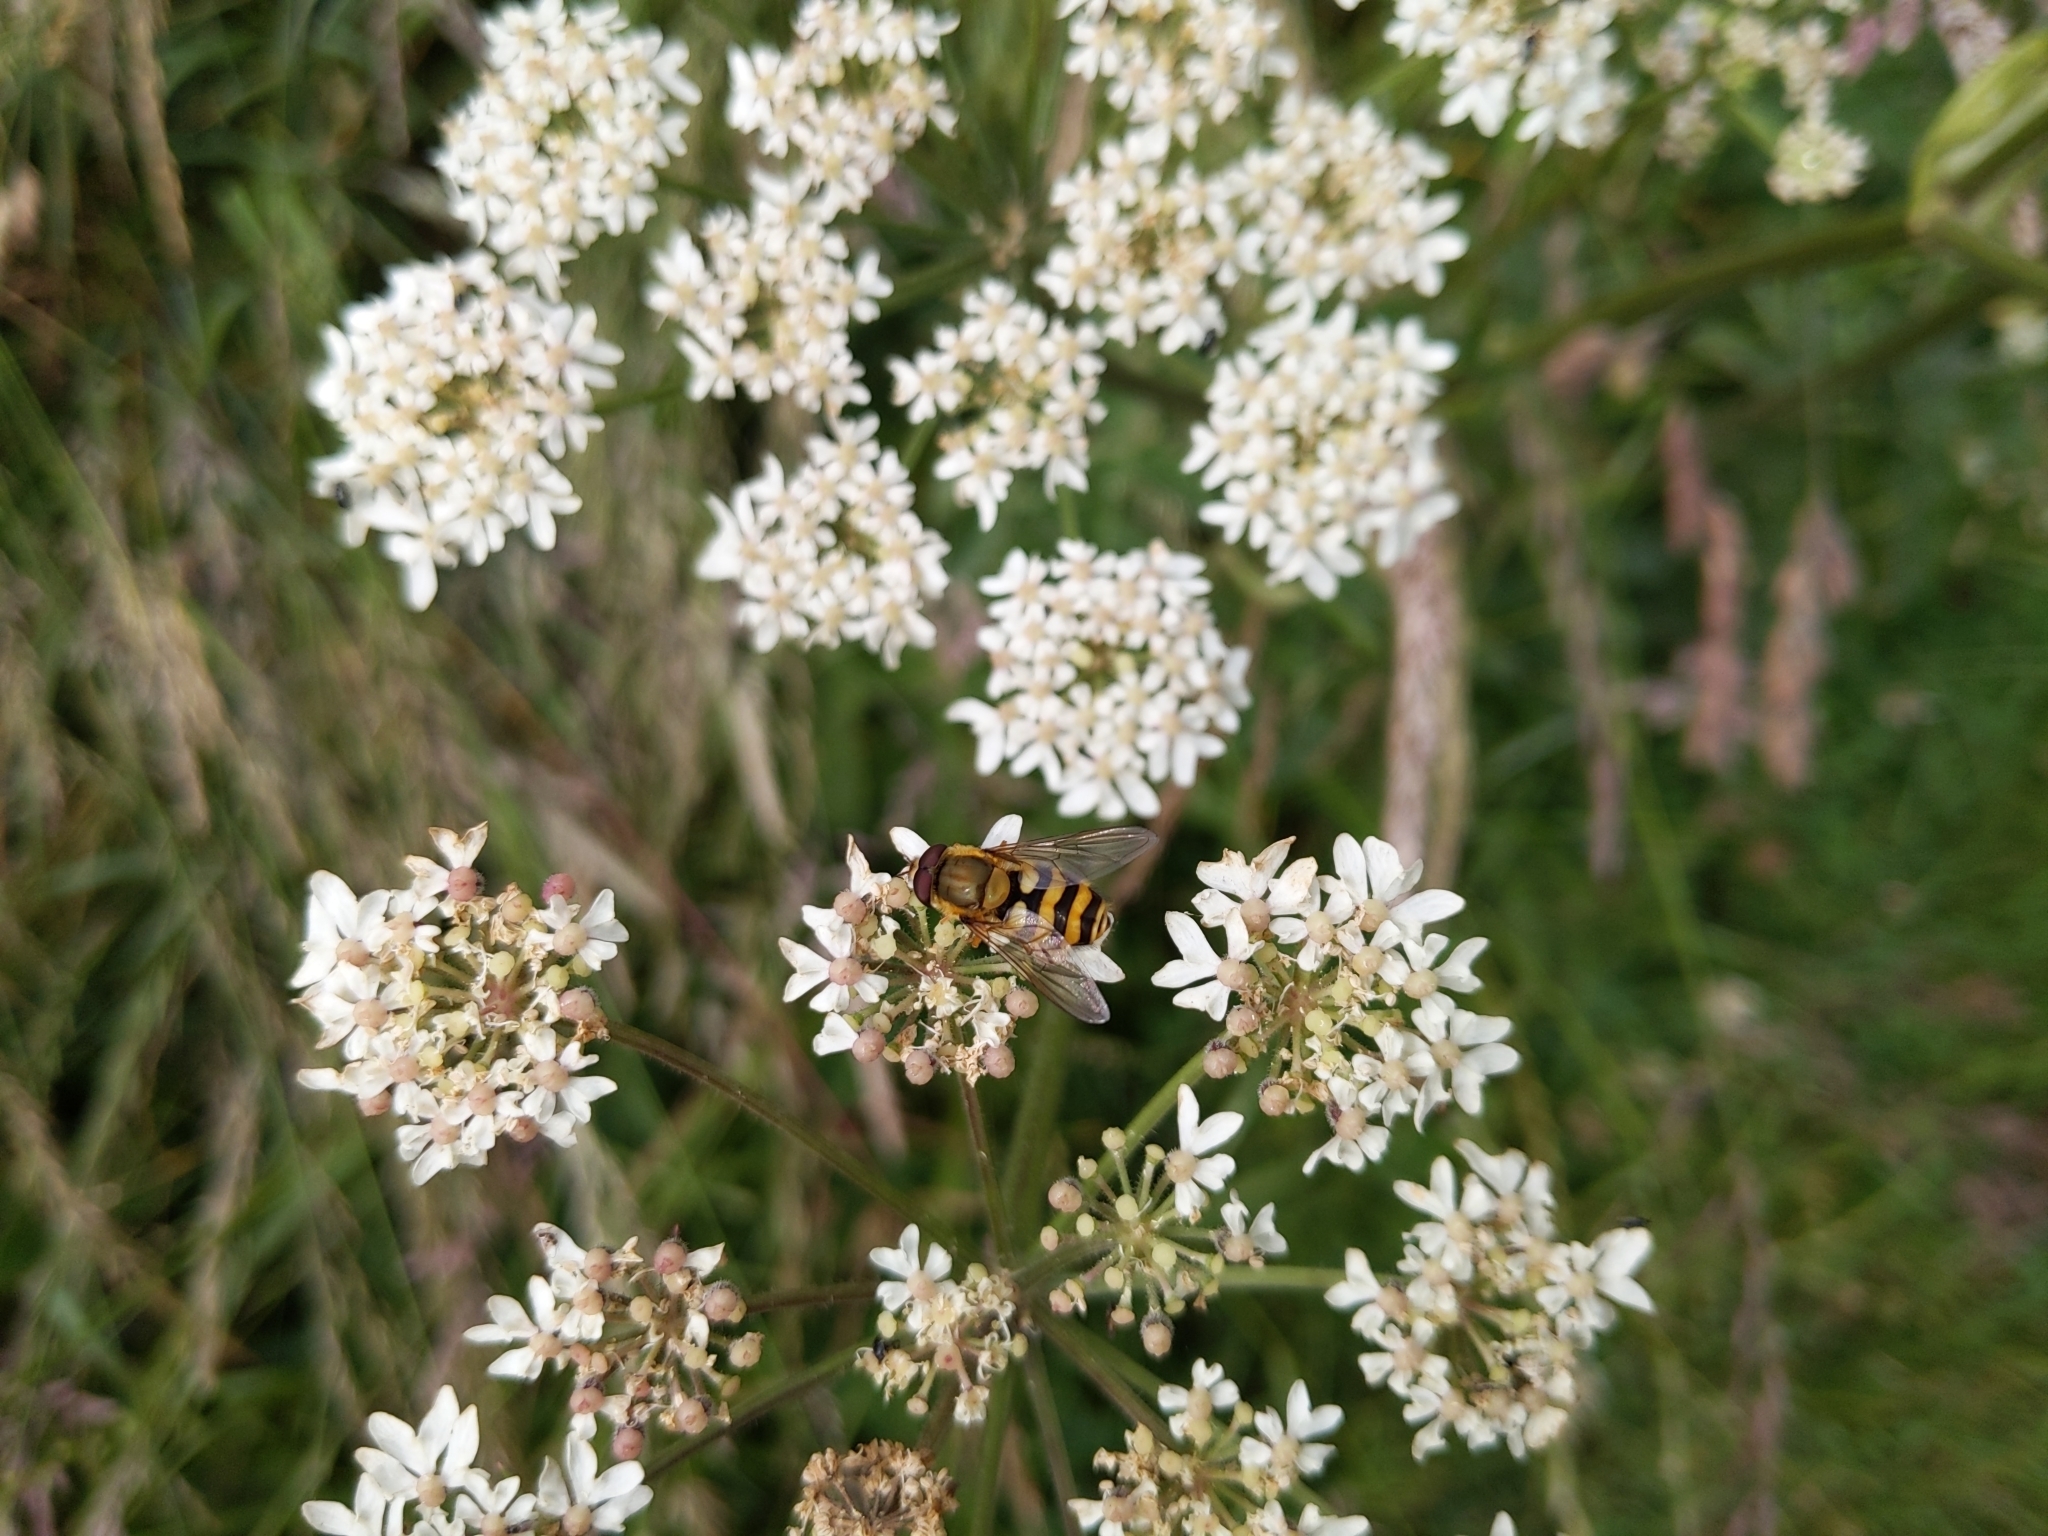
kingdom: Animalia
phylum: Arthropoda
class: Insecta
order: Diptera
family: Syrphidae
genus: Syrphus
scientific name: Syrphus
